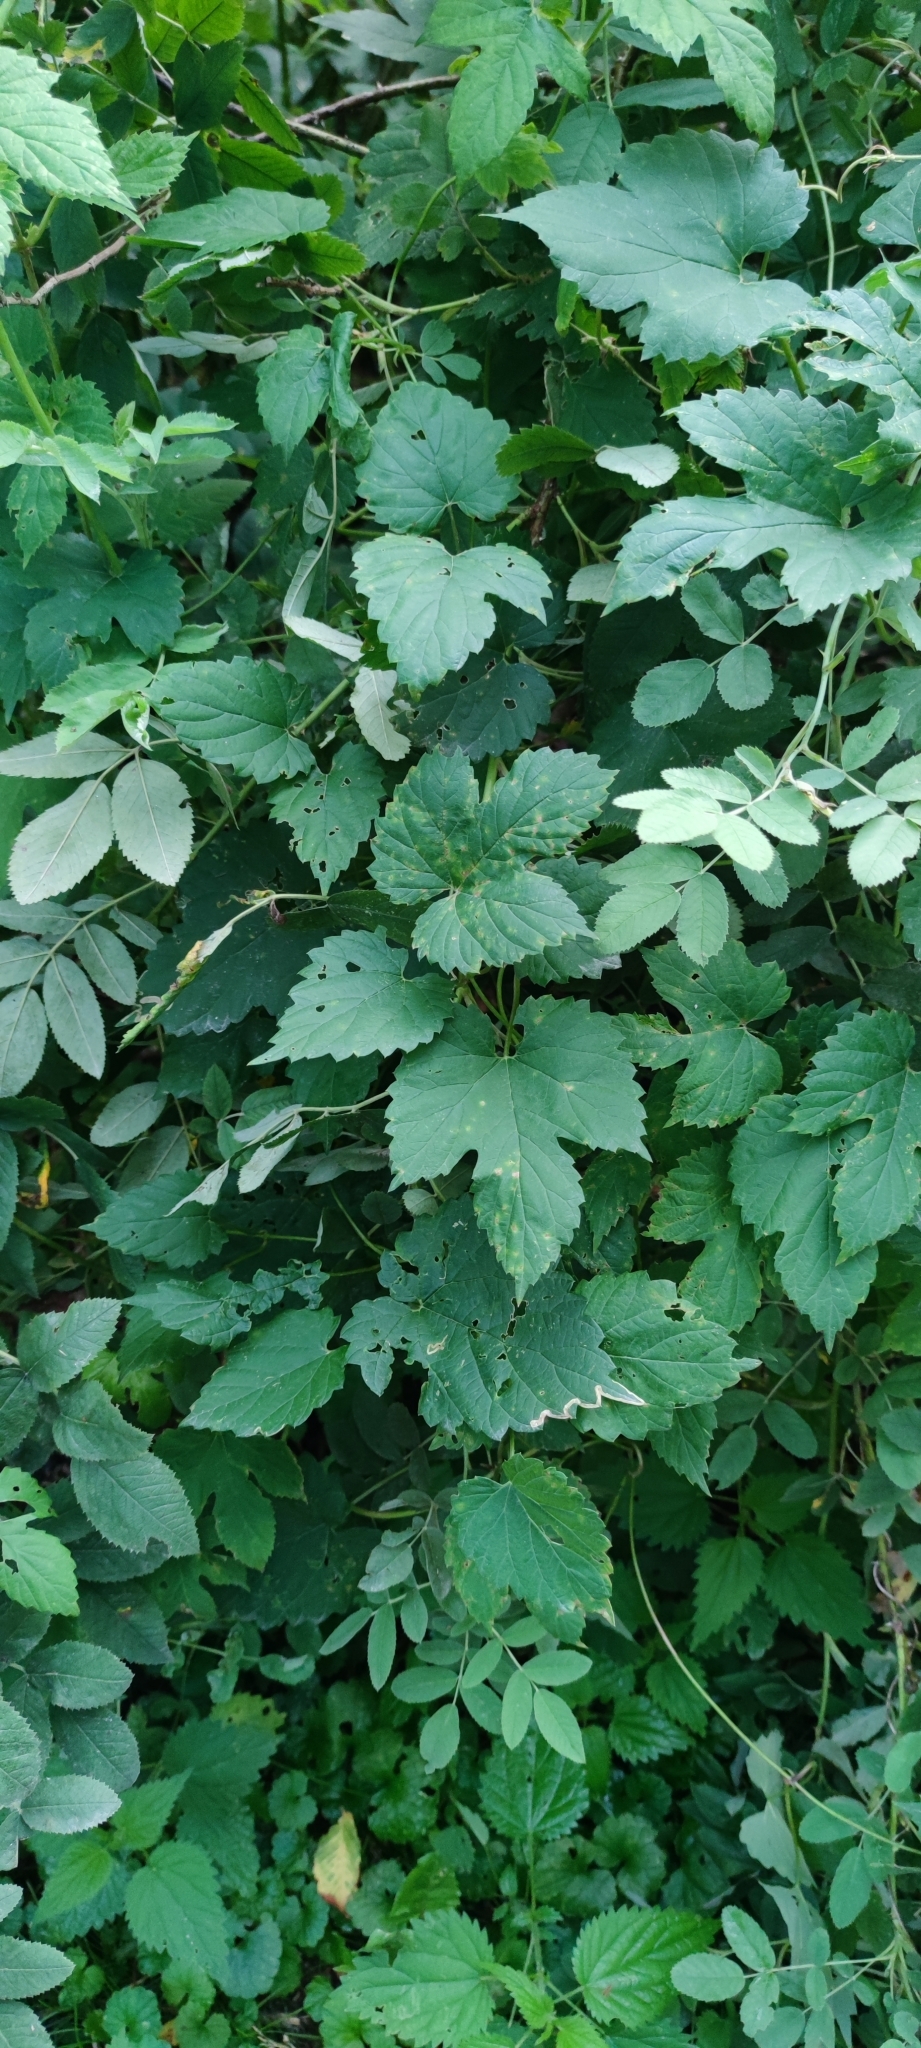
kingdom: Plantae
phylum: Tracheophyta
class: Magnoliopsida
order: Rosales
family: Cannabaceae
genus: Humulus
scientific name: Humulus lupulus
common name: Hop
